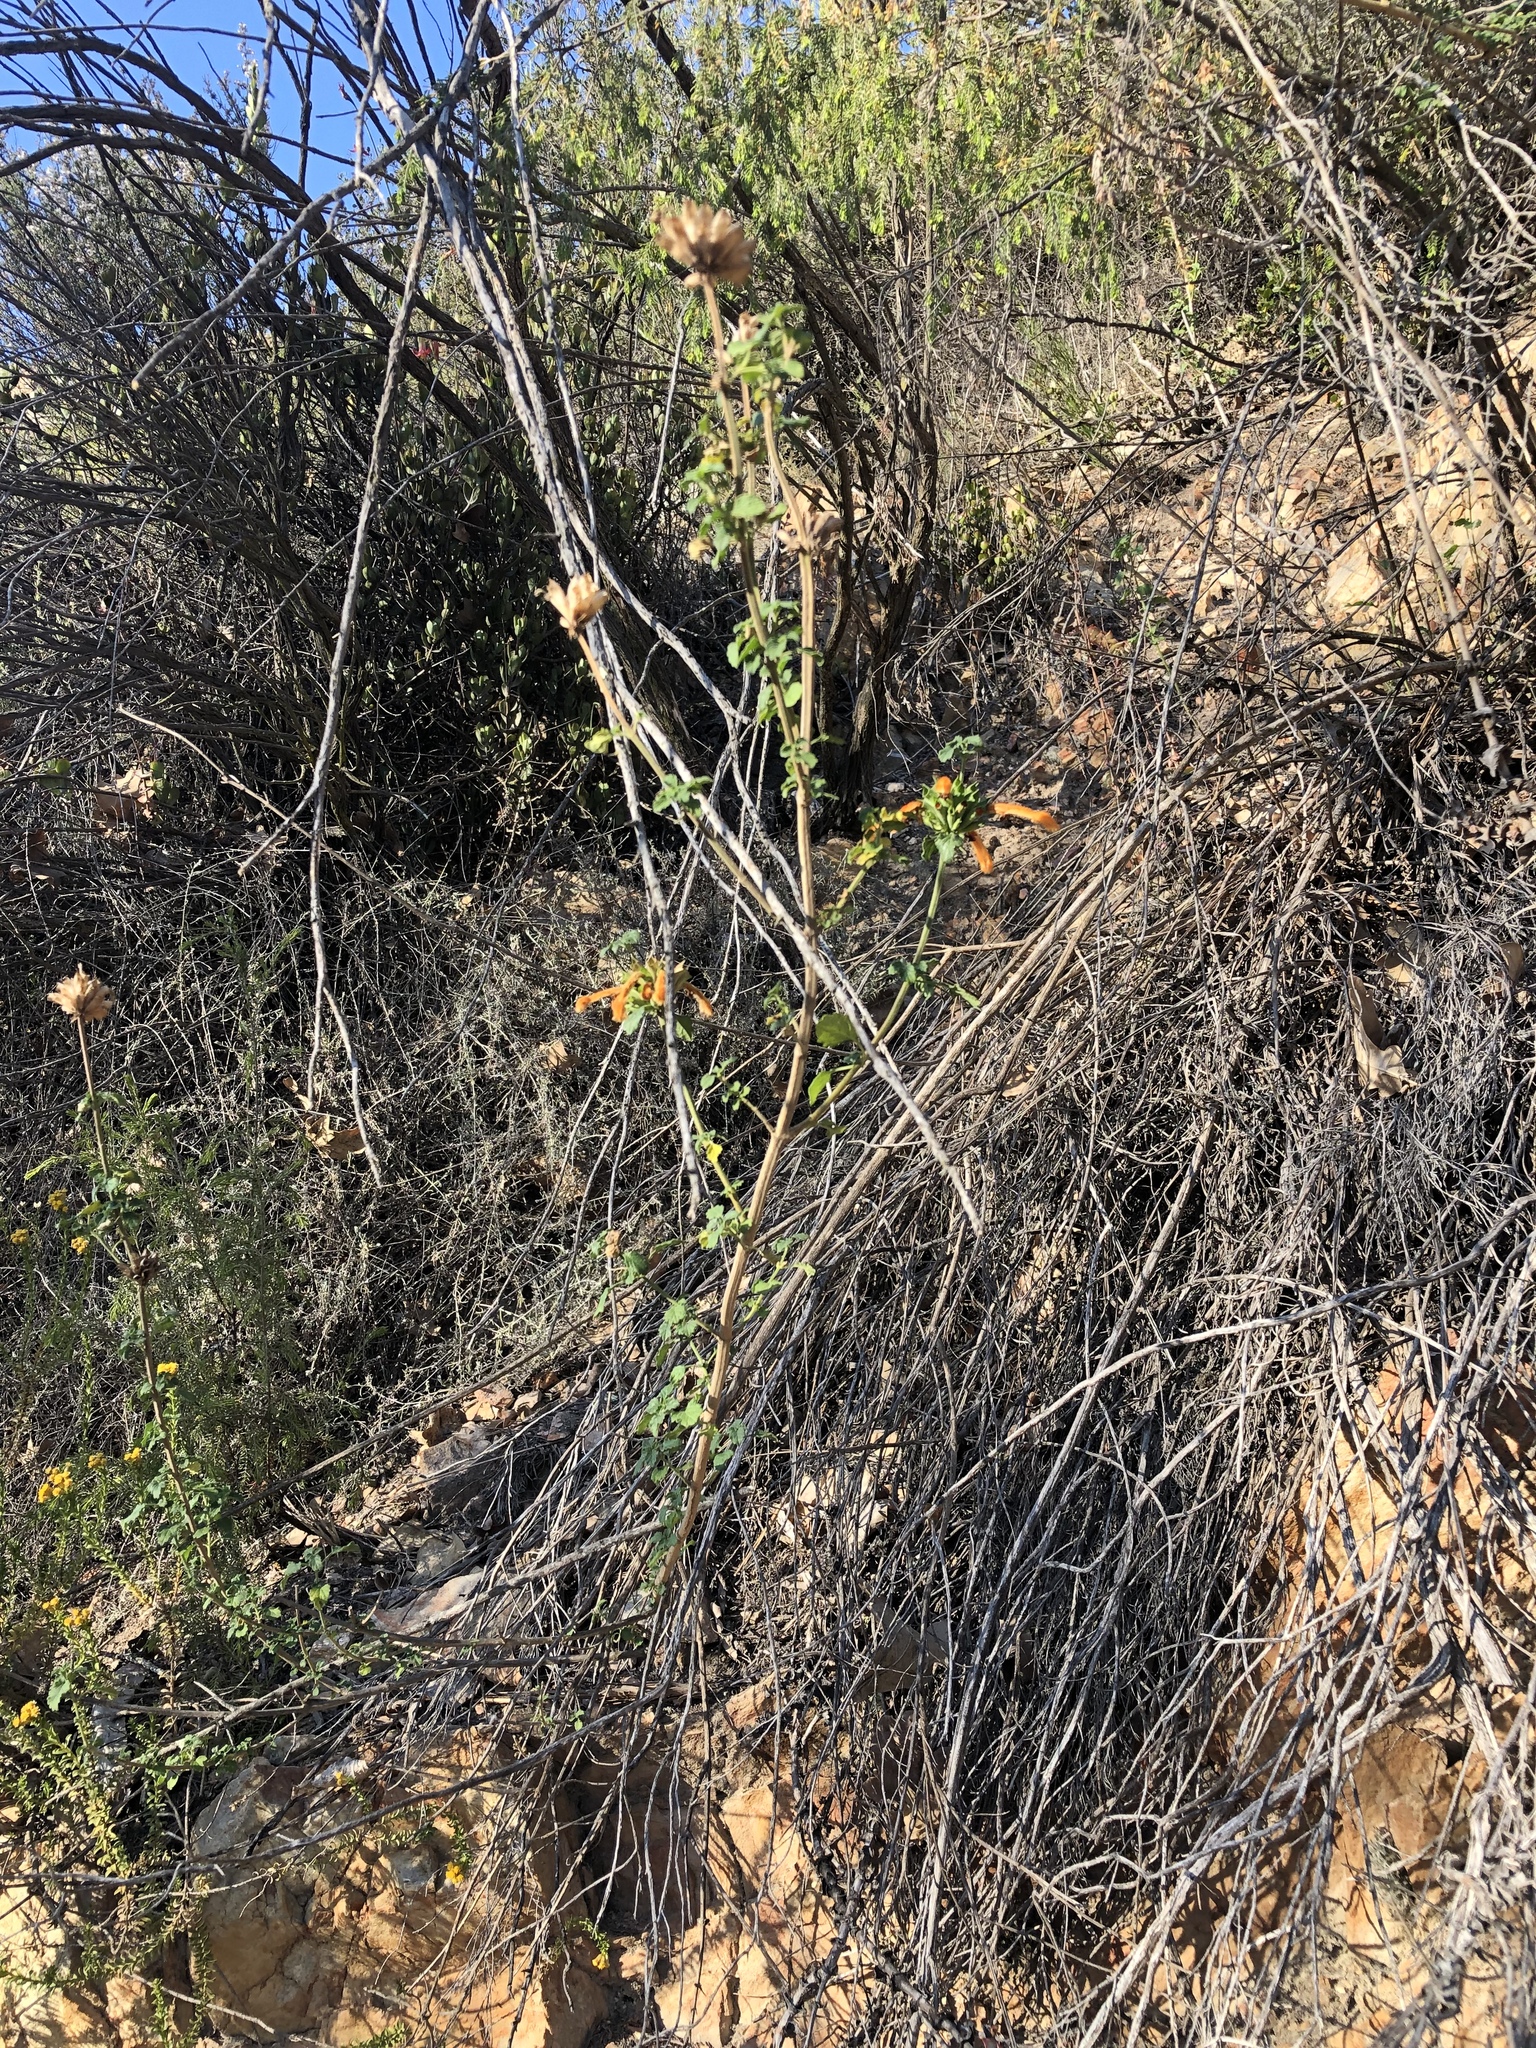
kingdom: Plantae
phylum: Tracheophyta
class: Magnoliopsida
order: Lamiales
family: Lamiaceae
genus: Leonotis
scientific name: Leonotis ocymifolia
